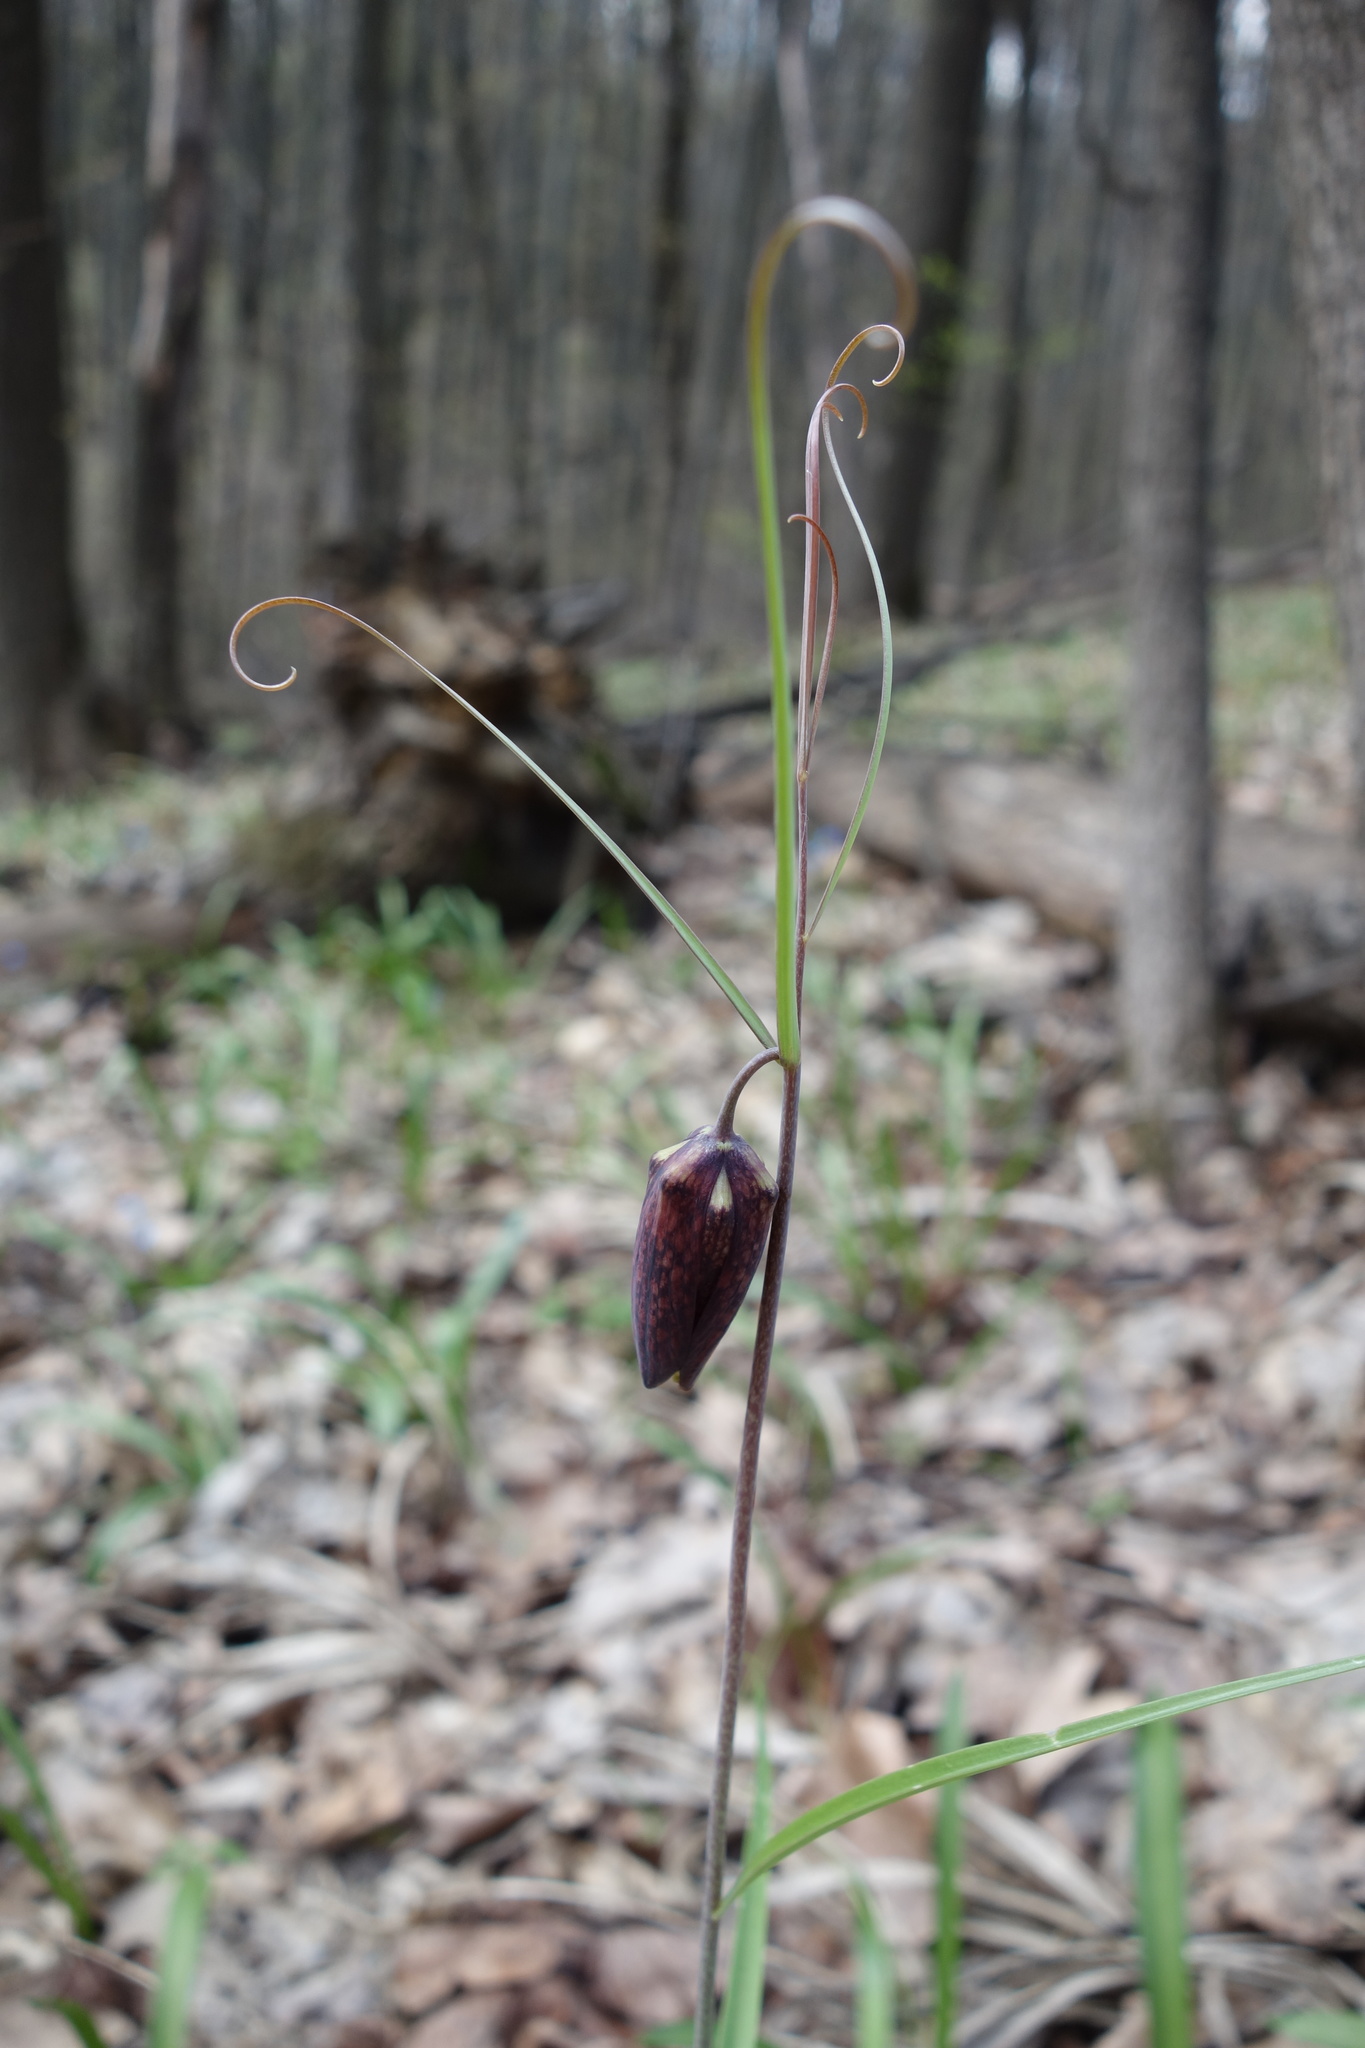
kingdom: Plantae
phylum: Tracheophyta
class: Liliopsida
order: Liliales
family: Liliaceae
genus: Fritillaria
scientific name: Fritillaria ruthenica
